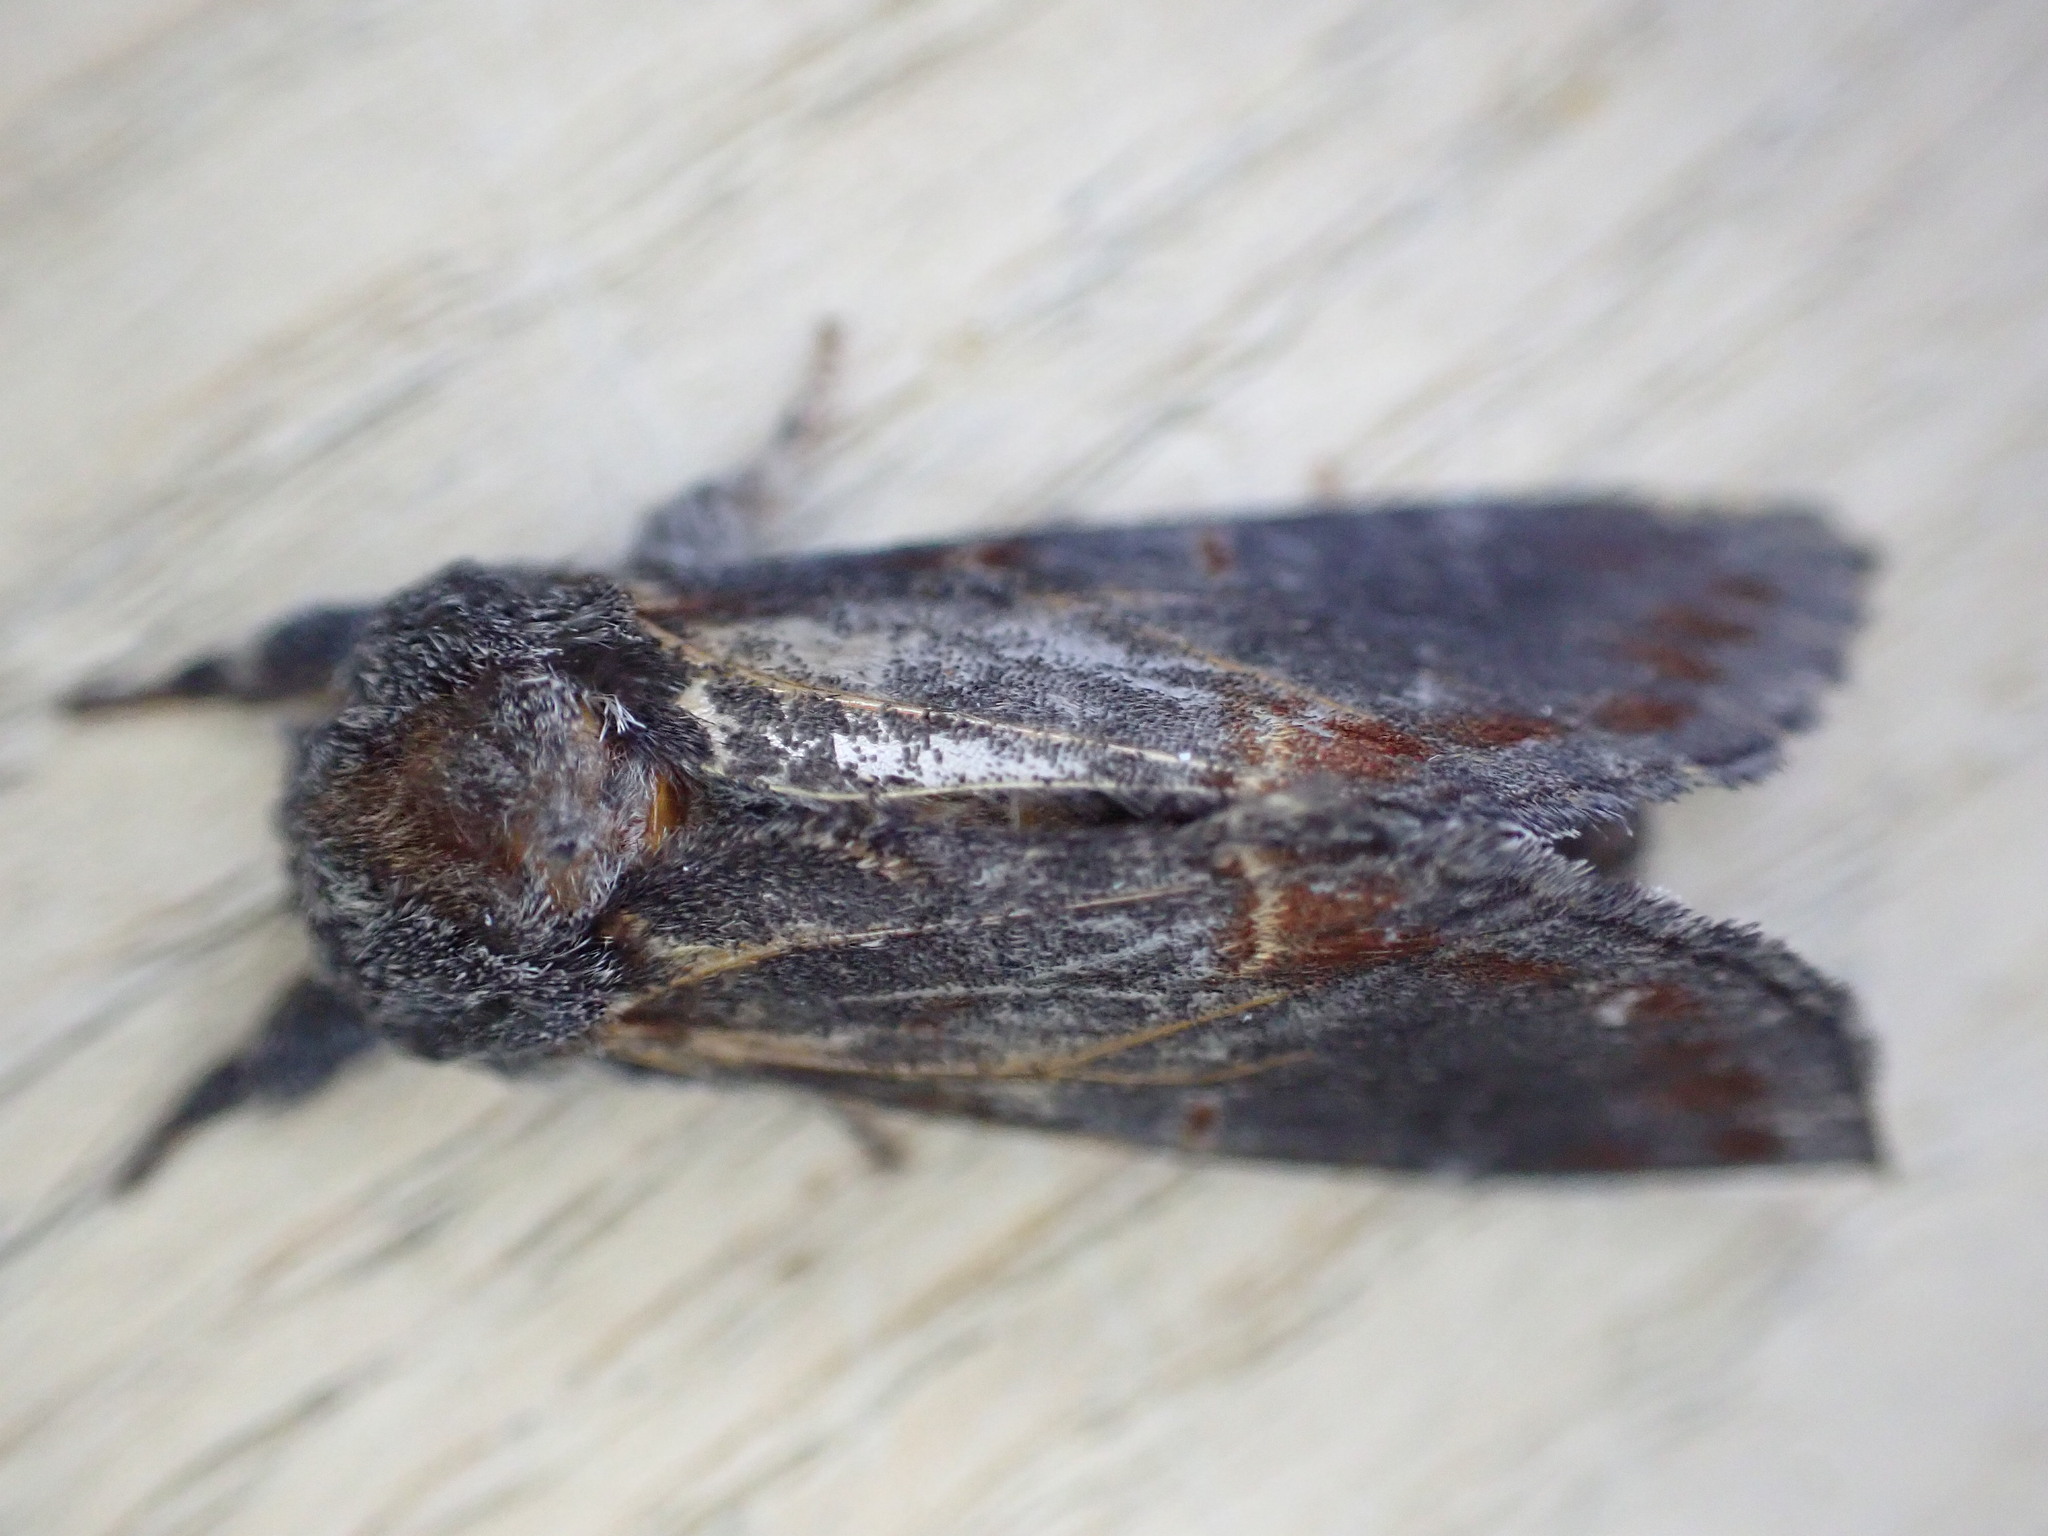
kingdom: Animalia
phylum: Arthropoda
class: Insecta
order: Lepidoptera
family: Notodontidae
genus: Notodonta
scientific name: Notodonta dromedarius
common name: Iron prominent
